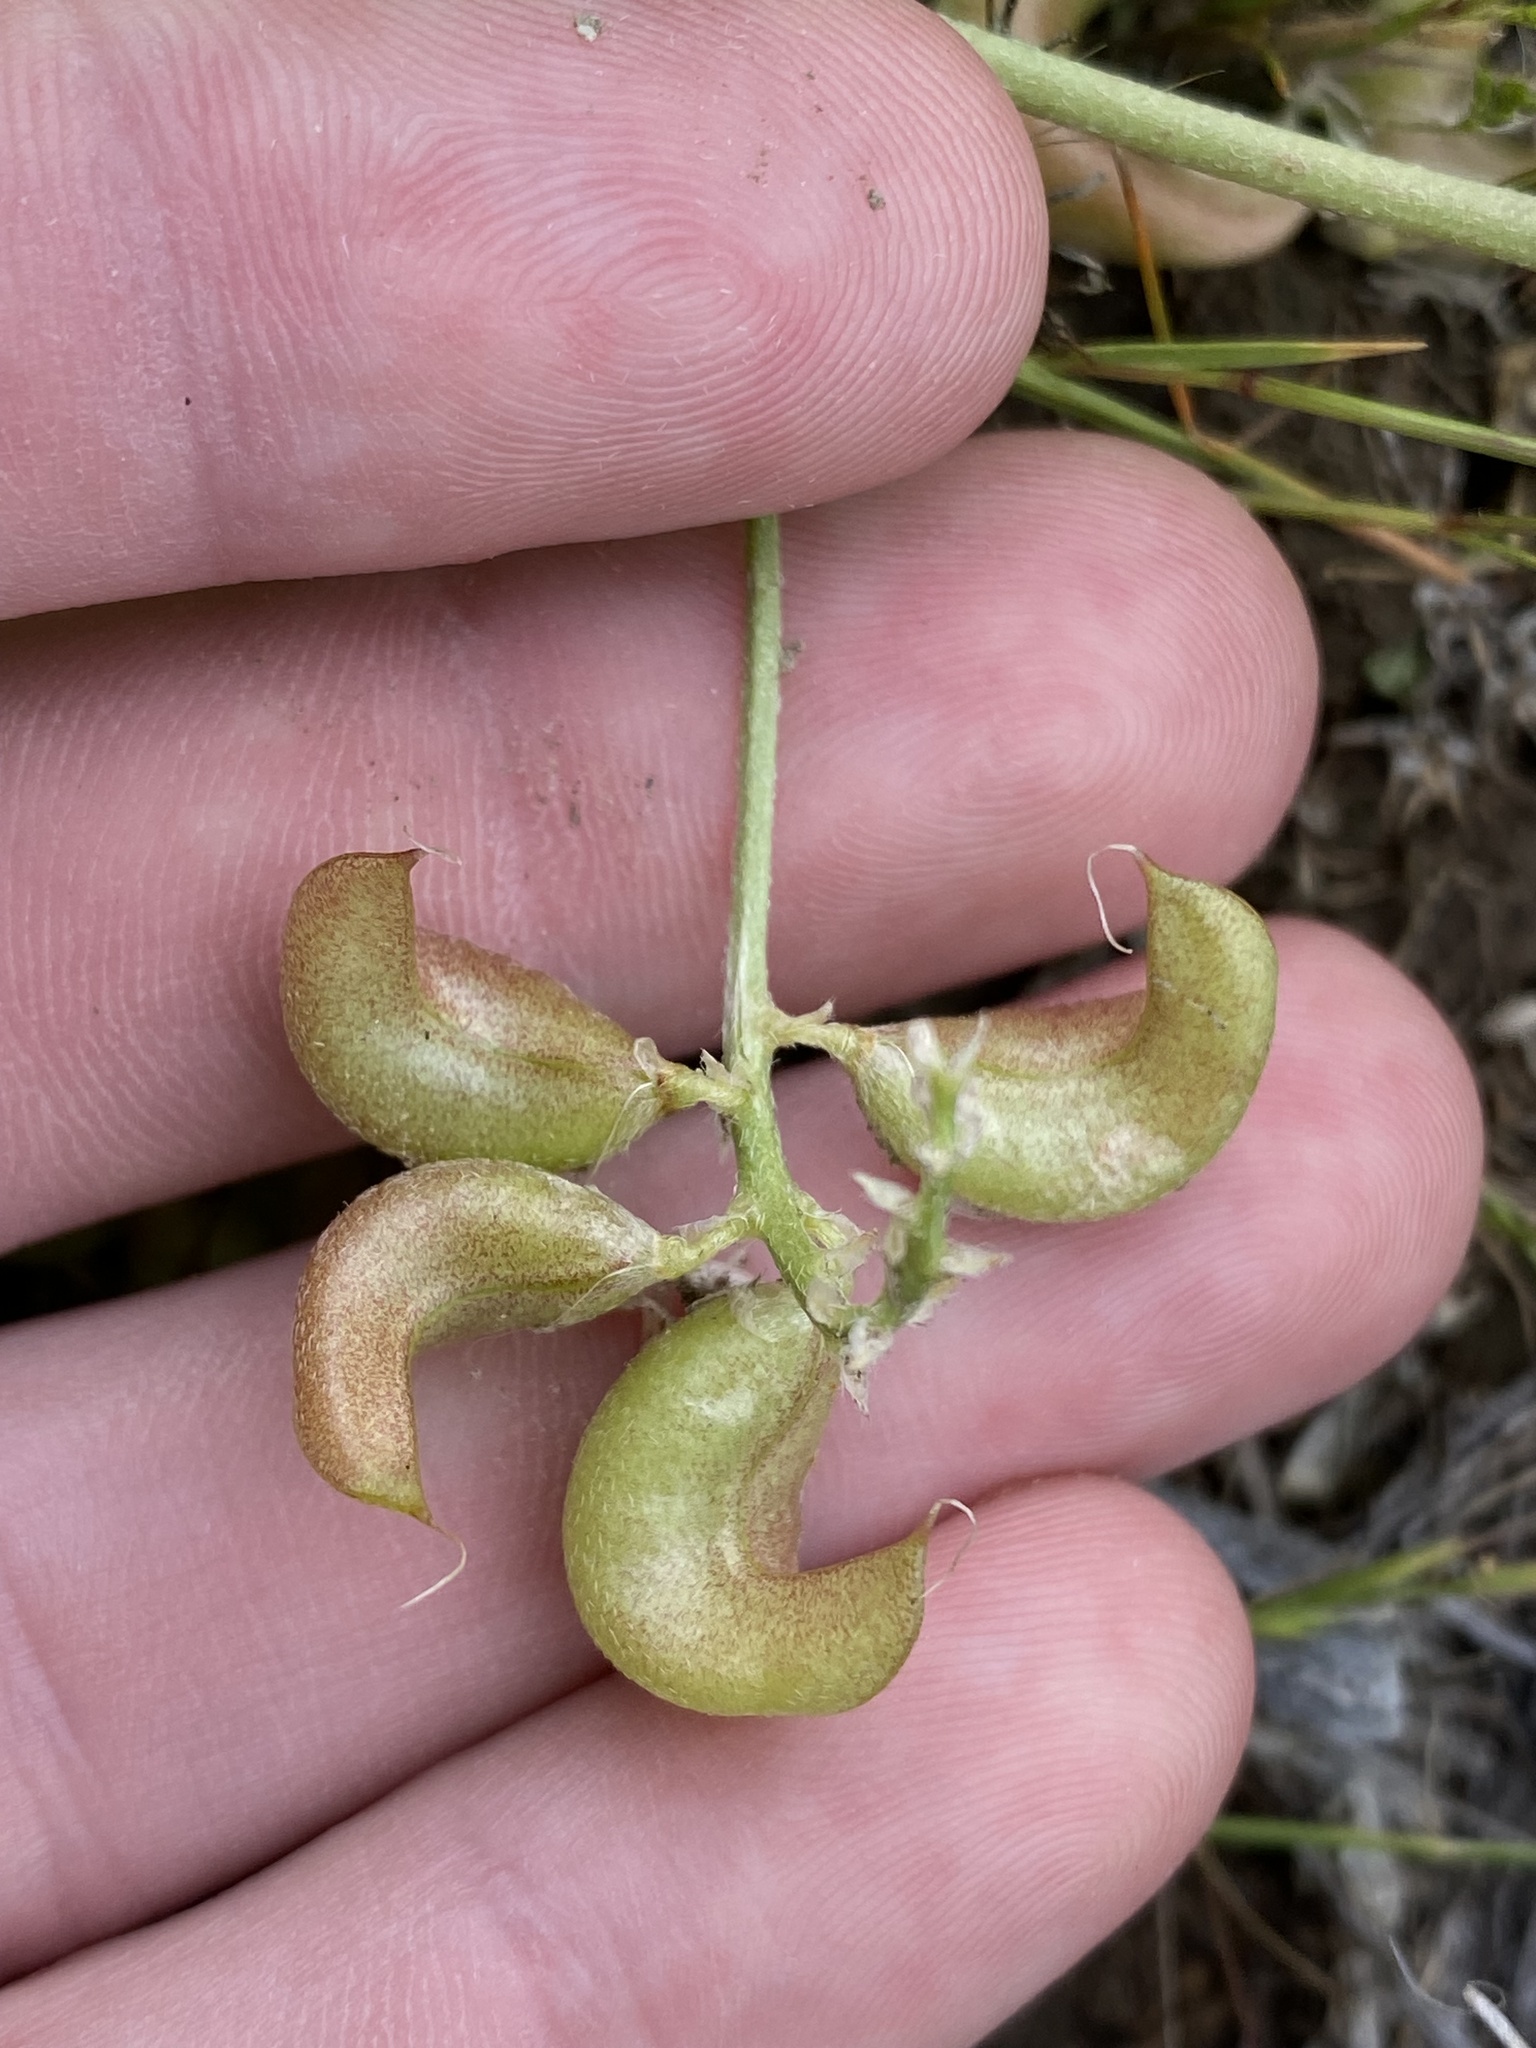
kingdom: Plantae
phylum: Tracheophyta
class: Magnoliopsida
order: Fabales
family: Fabaceae
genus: Astragalus
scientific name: Astragalus lentiginosus
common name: Freckled milkvetch
